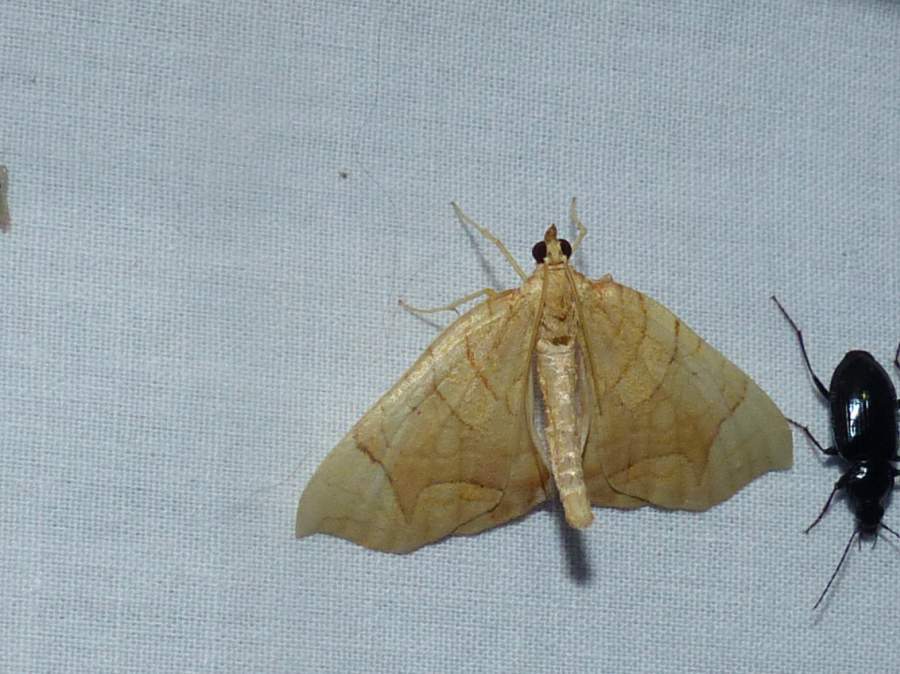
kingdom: Animalia
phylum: Arthropoda
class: Insecta
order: Lepidoptera
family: Geometridae
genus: Eulithis
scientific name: Eulithis
